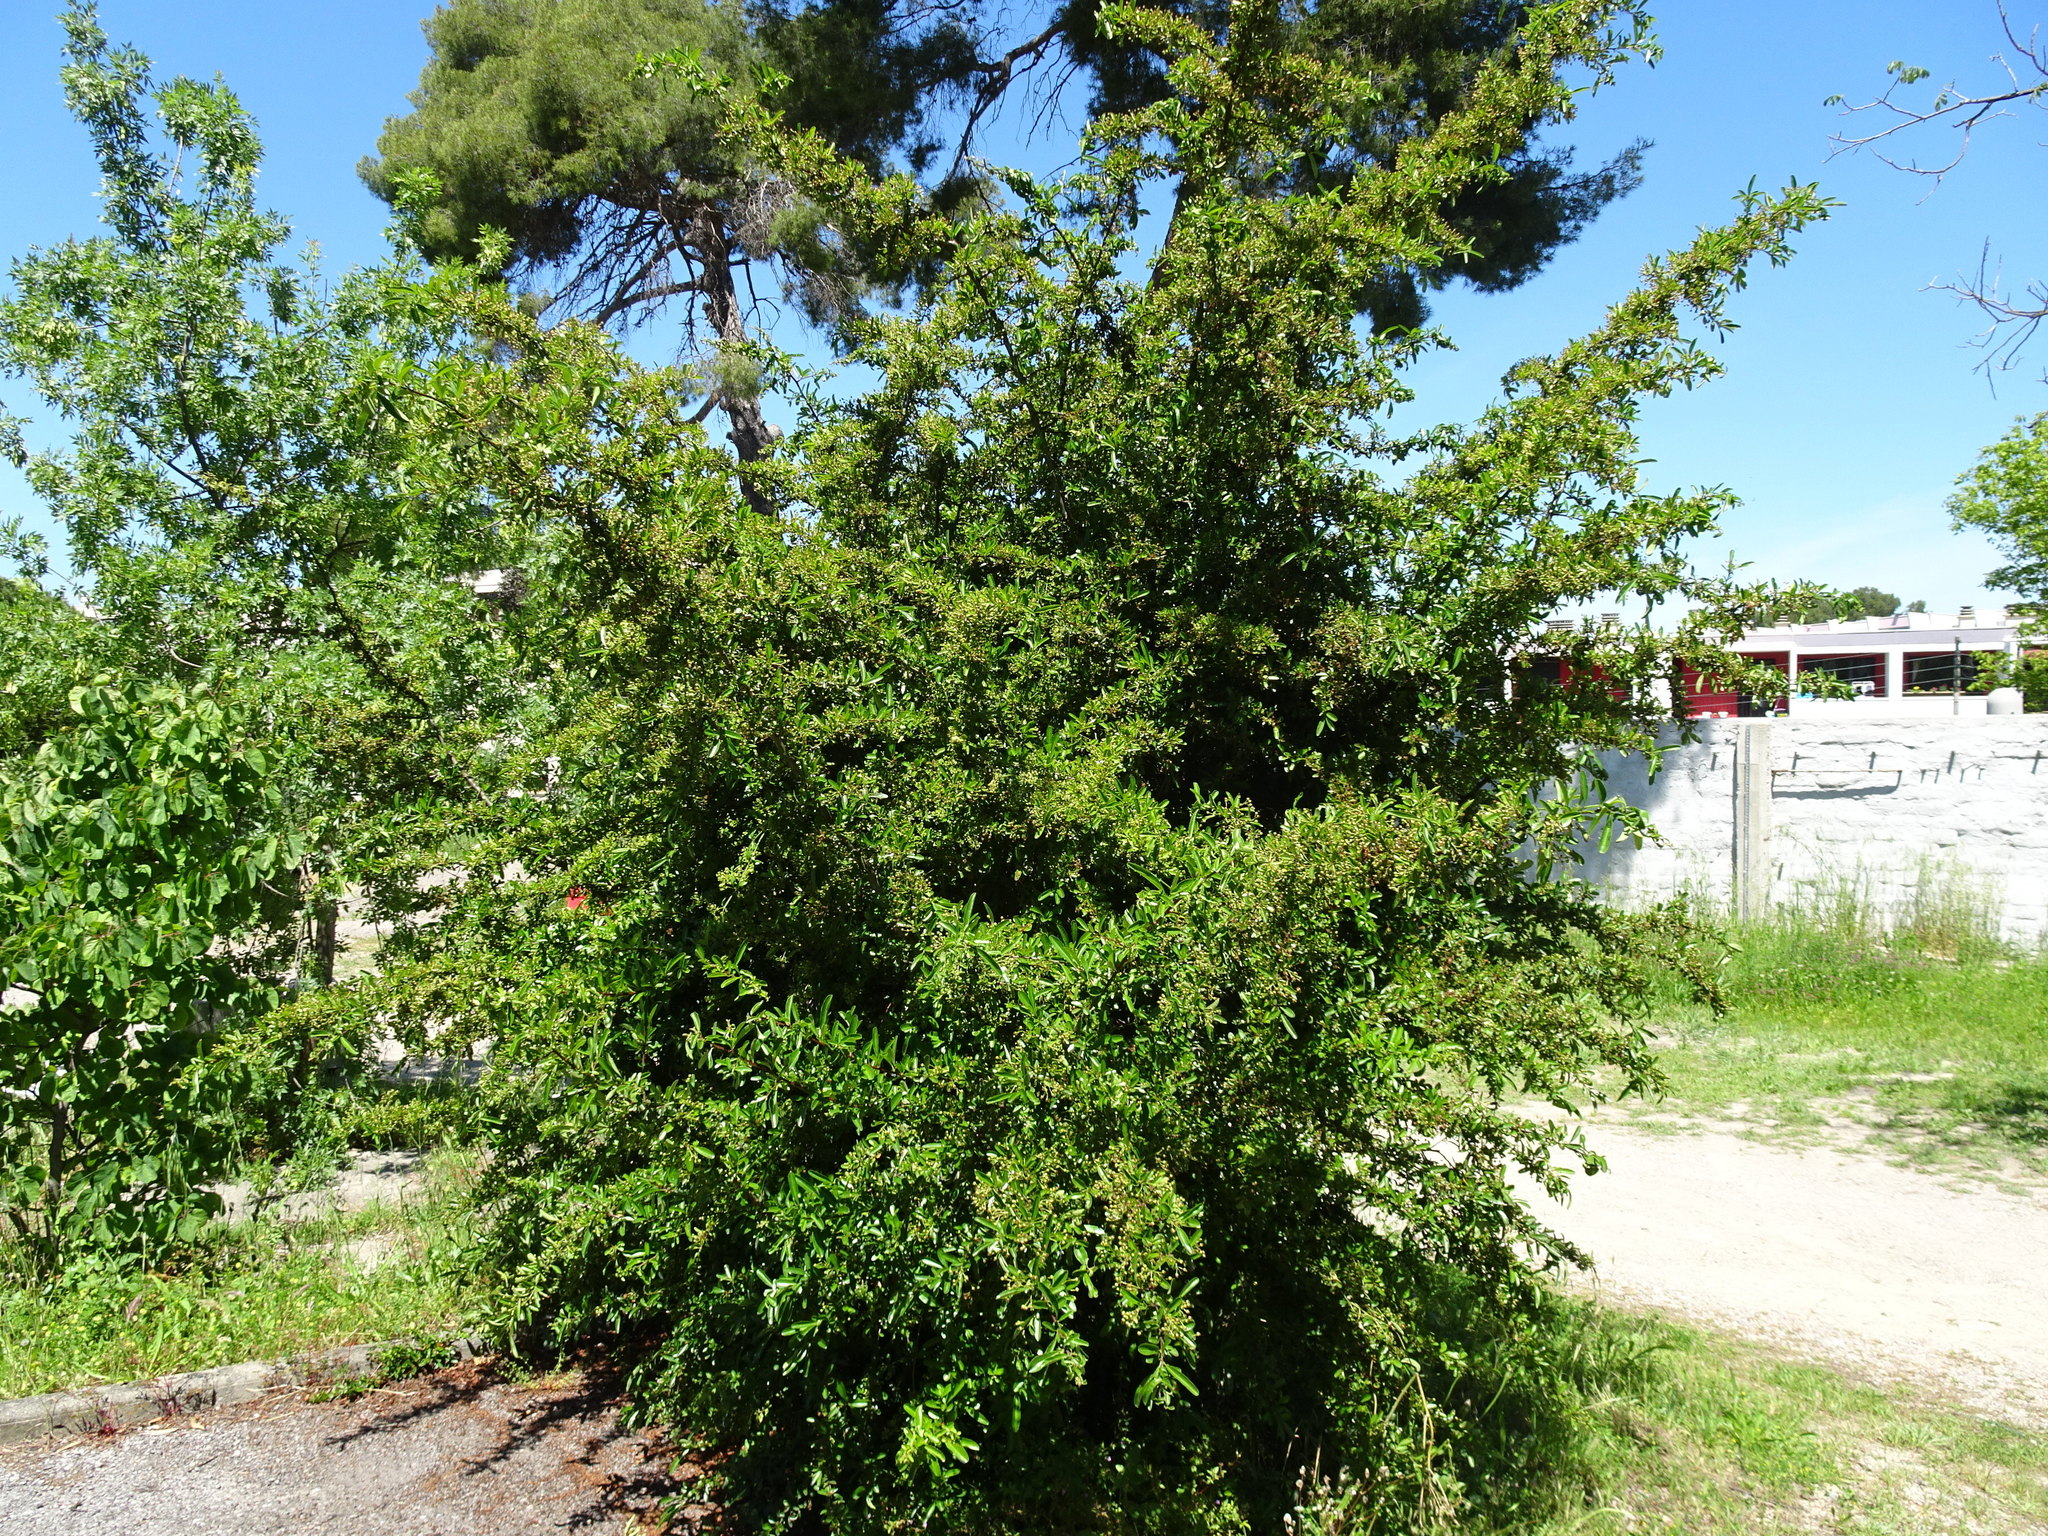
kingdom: Plantae
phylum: Tracheophyta
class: Magnoliopsida
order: Rosales
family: Rosaceae
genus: Pyracantha
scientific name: Pyracantha coccinea
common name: Firethorn
